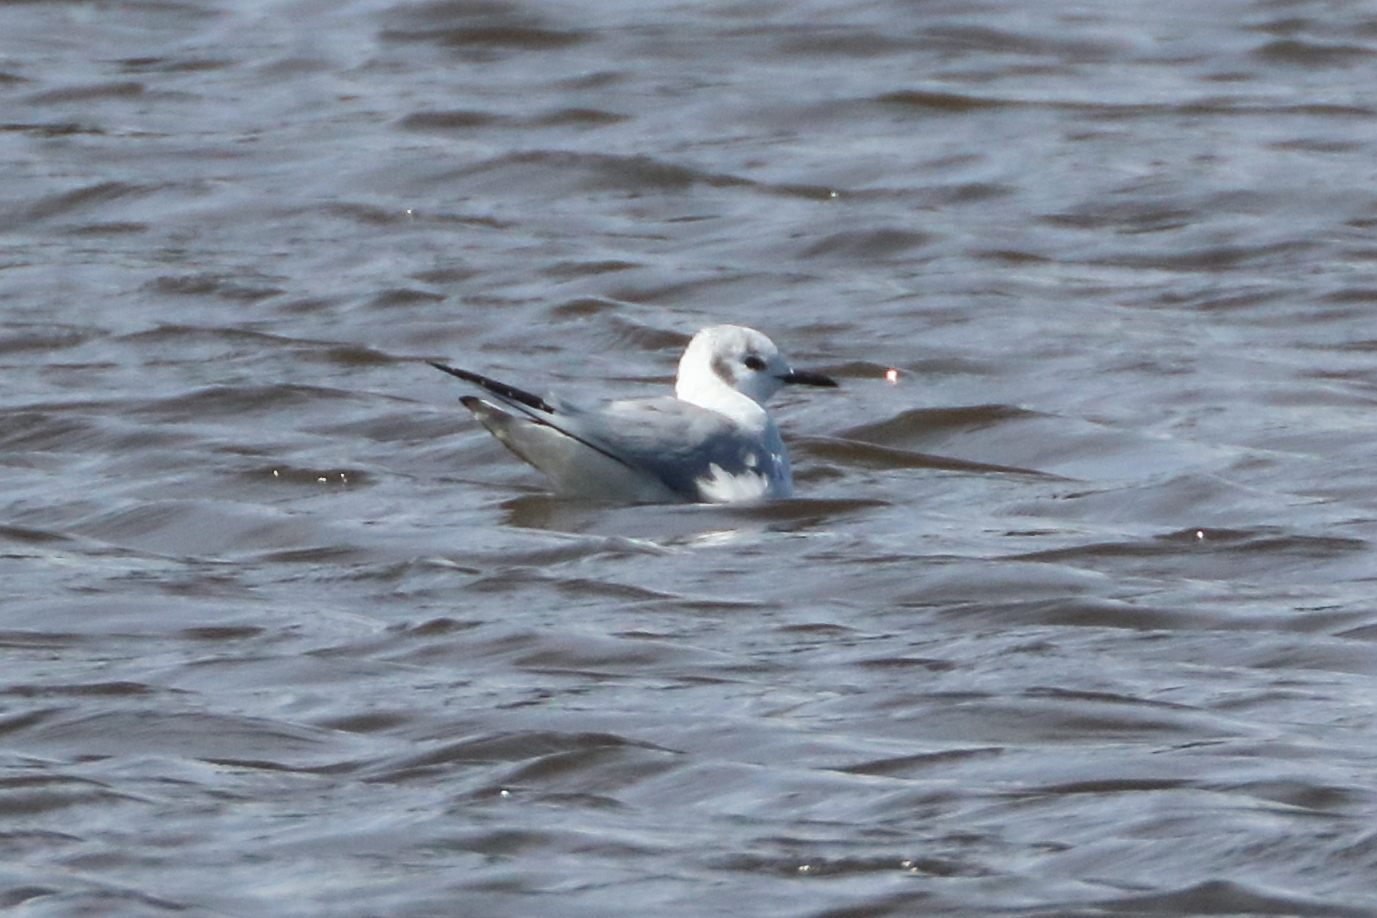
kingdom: Animalia
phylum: Chordata
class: Aves
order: Charadriiformes
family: Laridae
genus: Chroicocephalus
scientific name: Chroicocephalus philadelphia
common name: Bonaparte's gull
